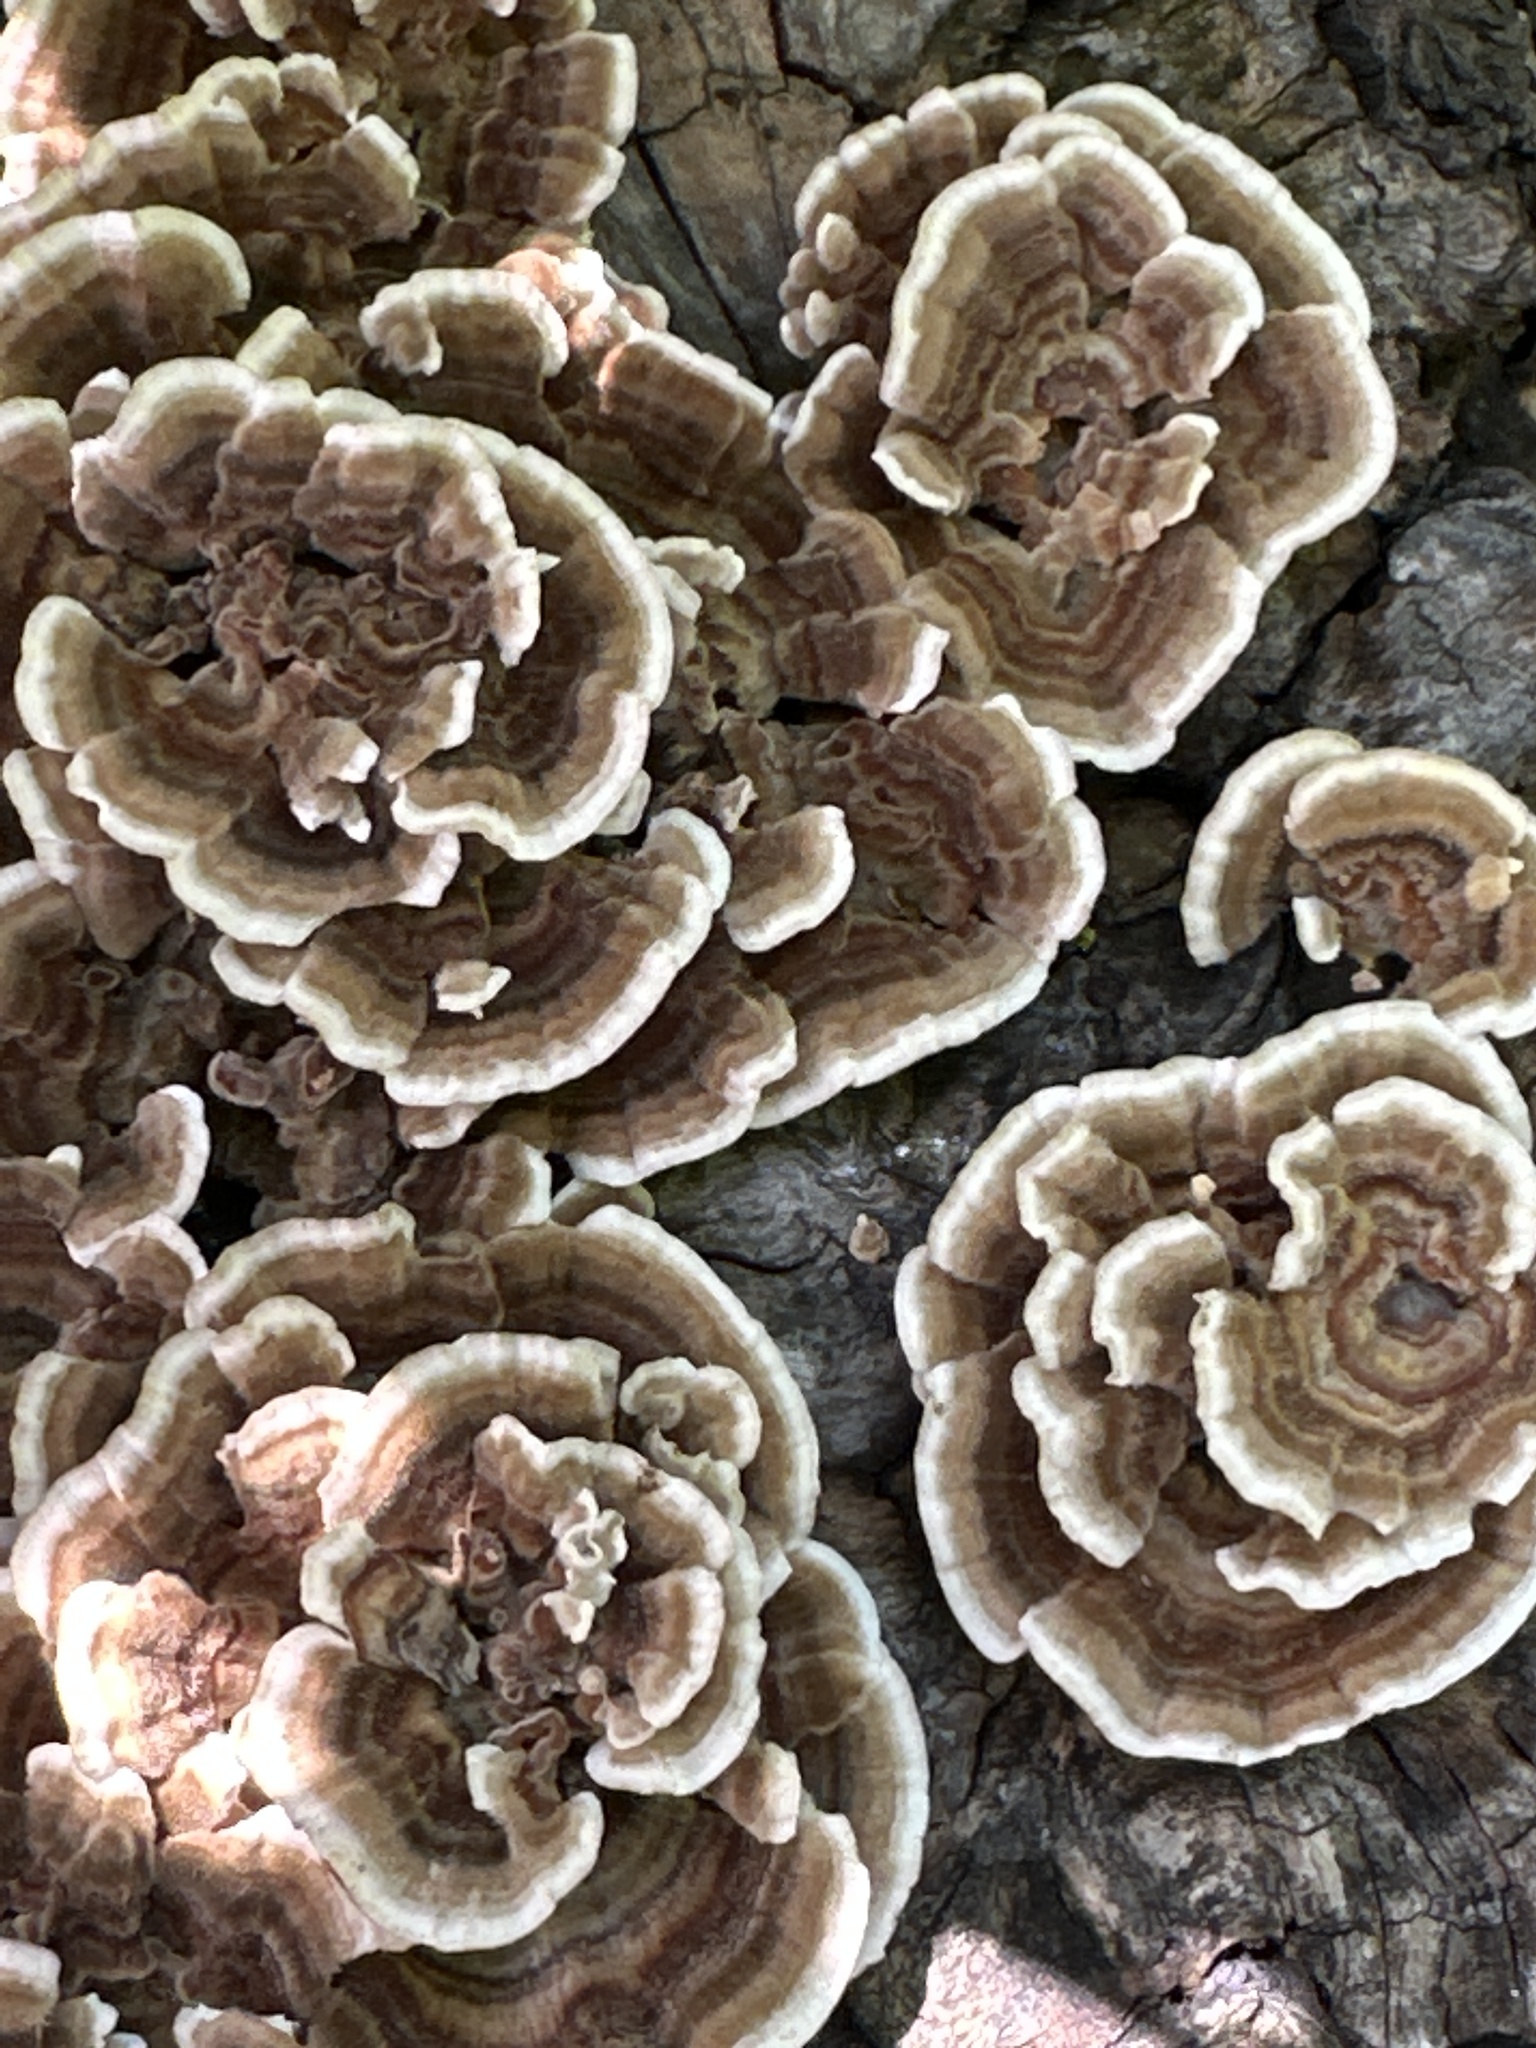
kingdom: Fungi
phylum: Basidiomycota
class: Agaricomycetes
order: Polyporales
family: Polyporaceae
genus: Trametes
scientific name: Trametes versicolor
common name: Turkeytail
